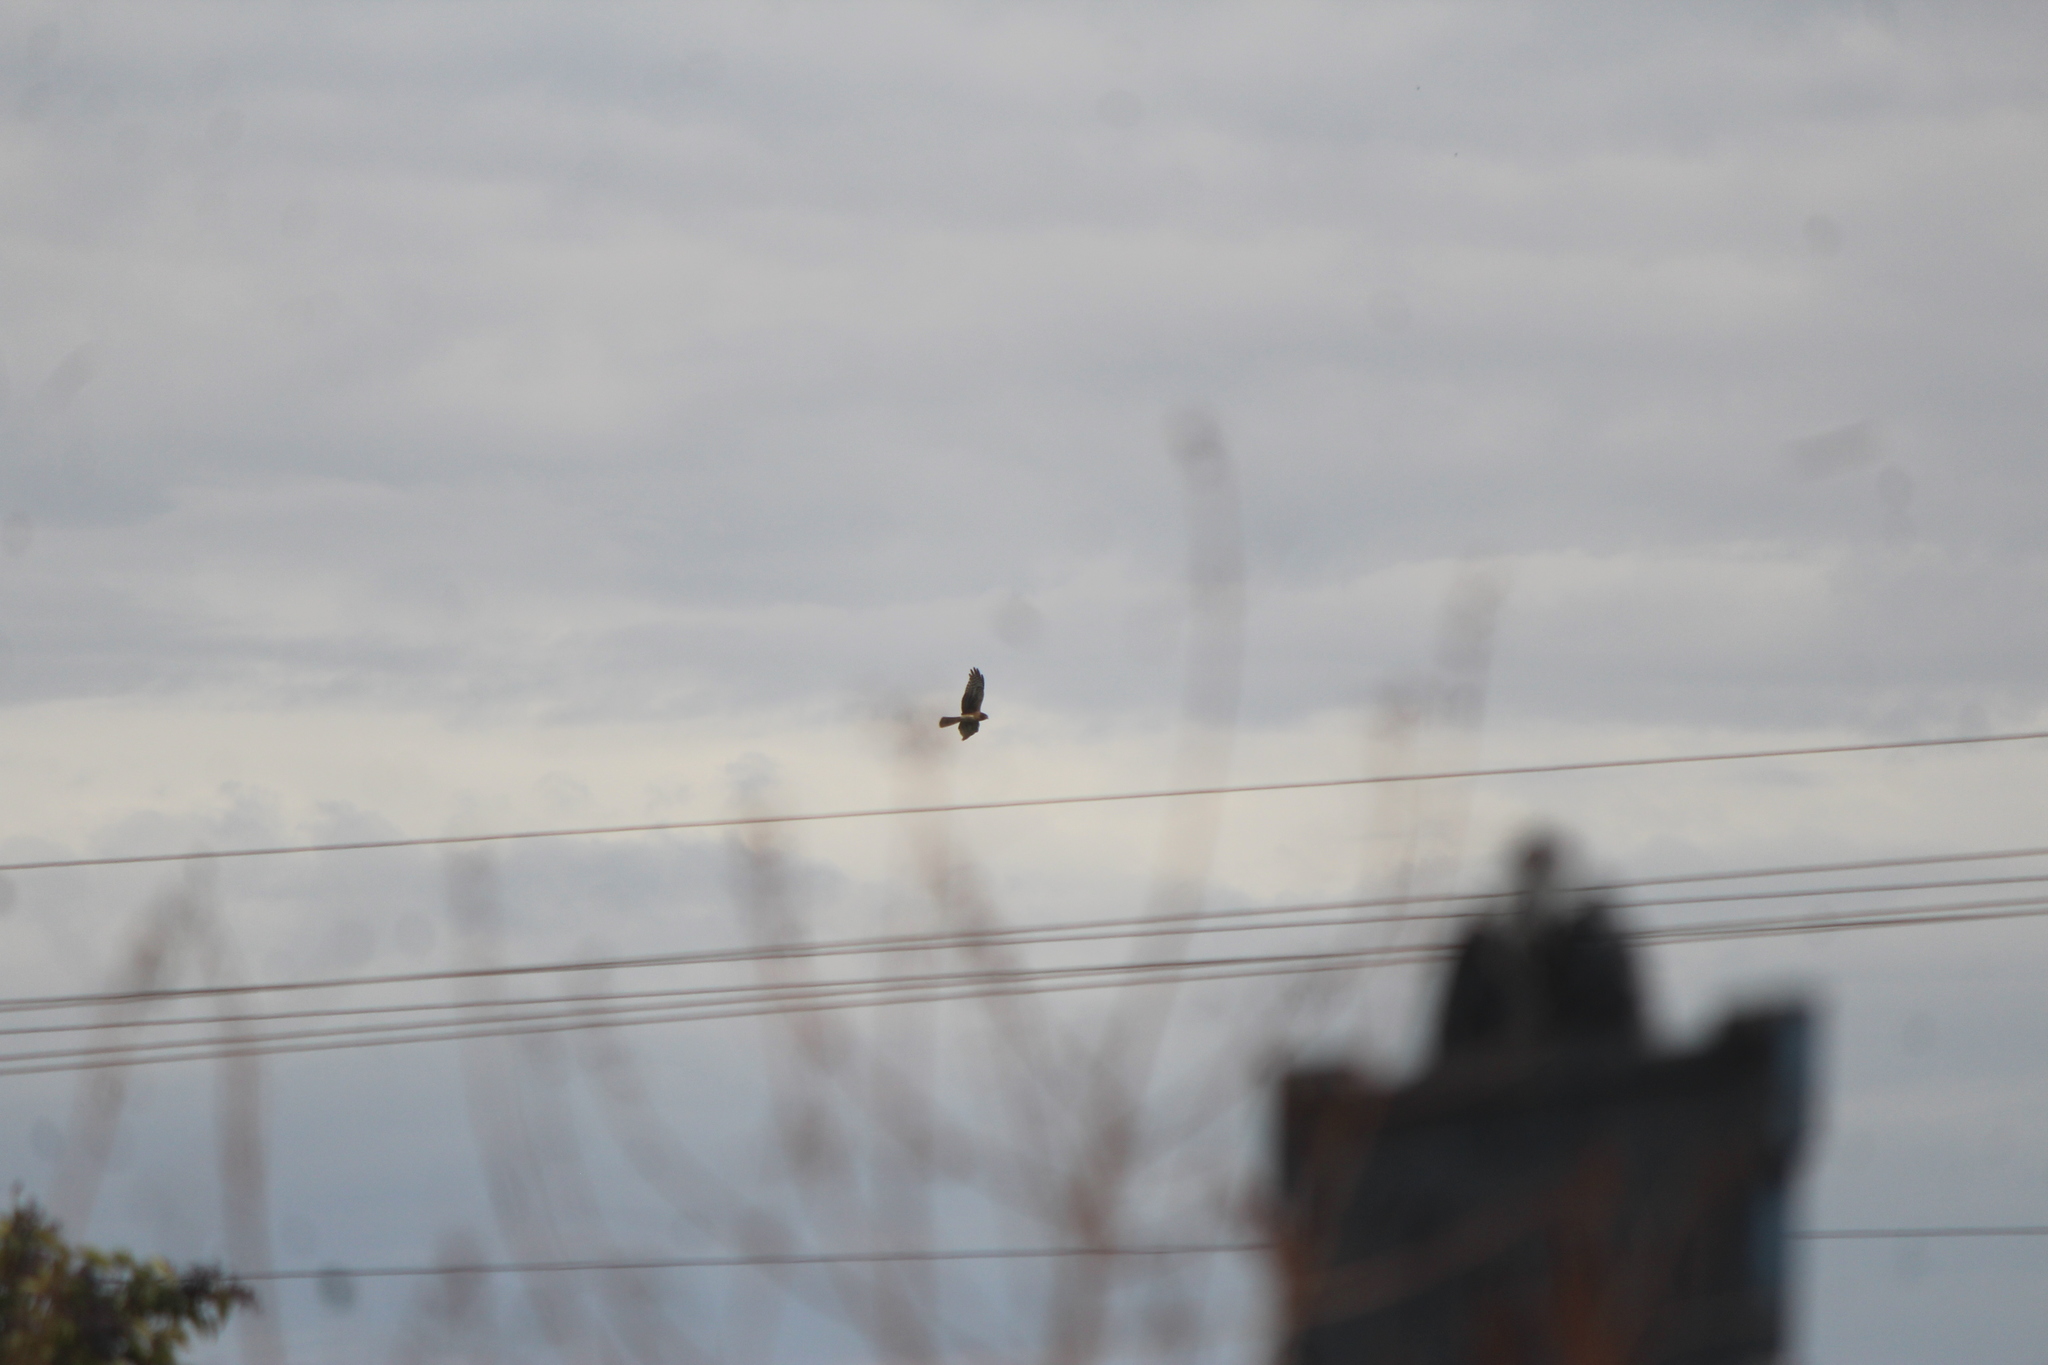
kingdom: Animalia
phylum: Chordata
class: Aves
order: Accipitriformes
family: Accipitridae
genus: Circus
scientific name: Circus cyaneus
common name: Hen harrier
